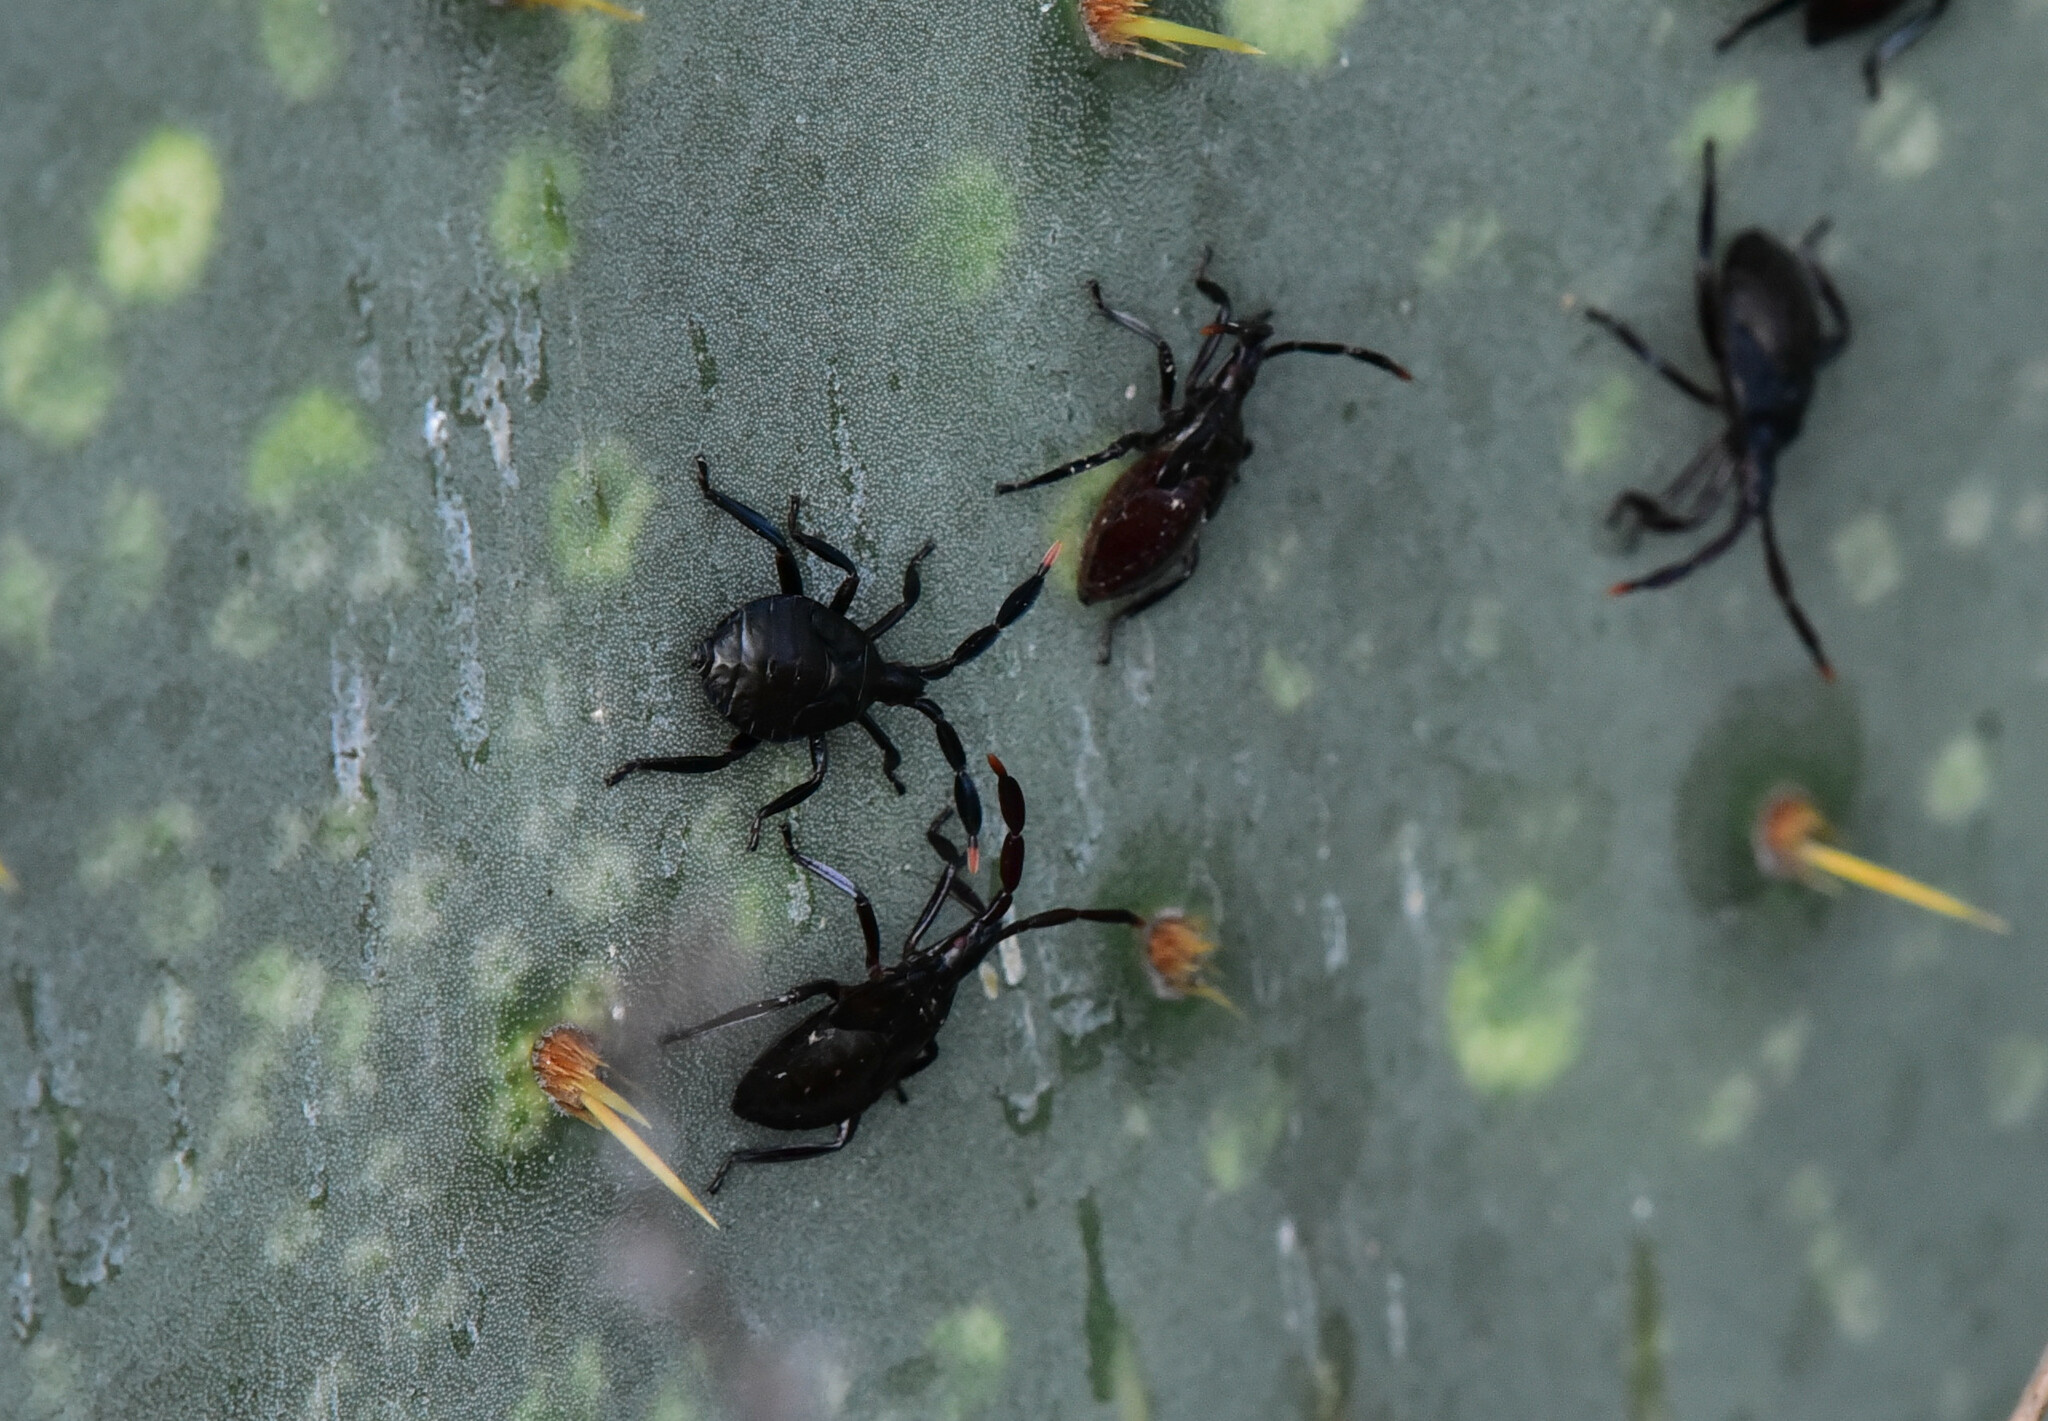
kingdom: Animalia
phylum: Arthropoda
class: Insecta
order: Hemiptera
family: Coreidae
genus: Chelinidea
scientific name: Chelinidea vittiger
